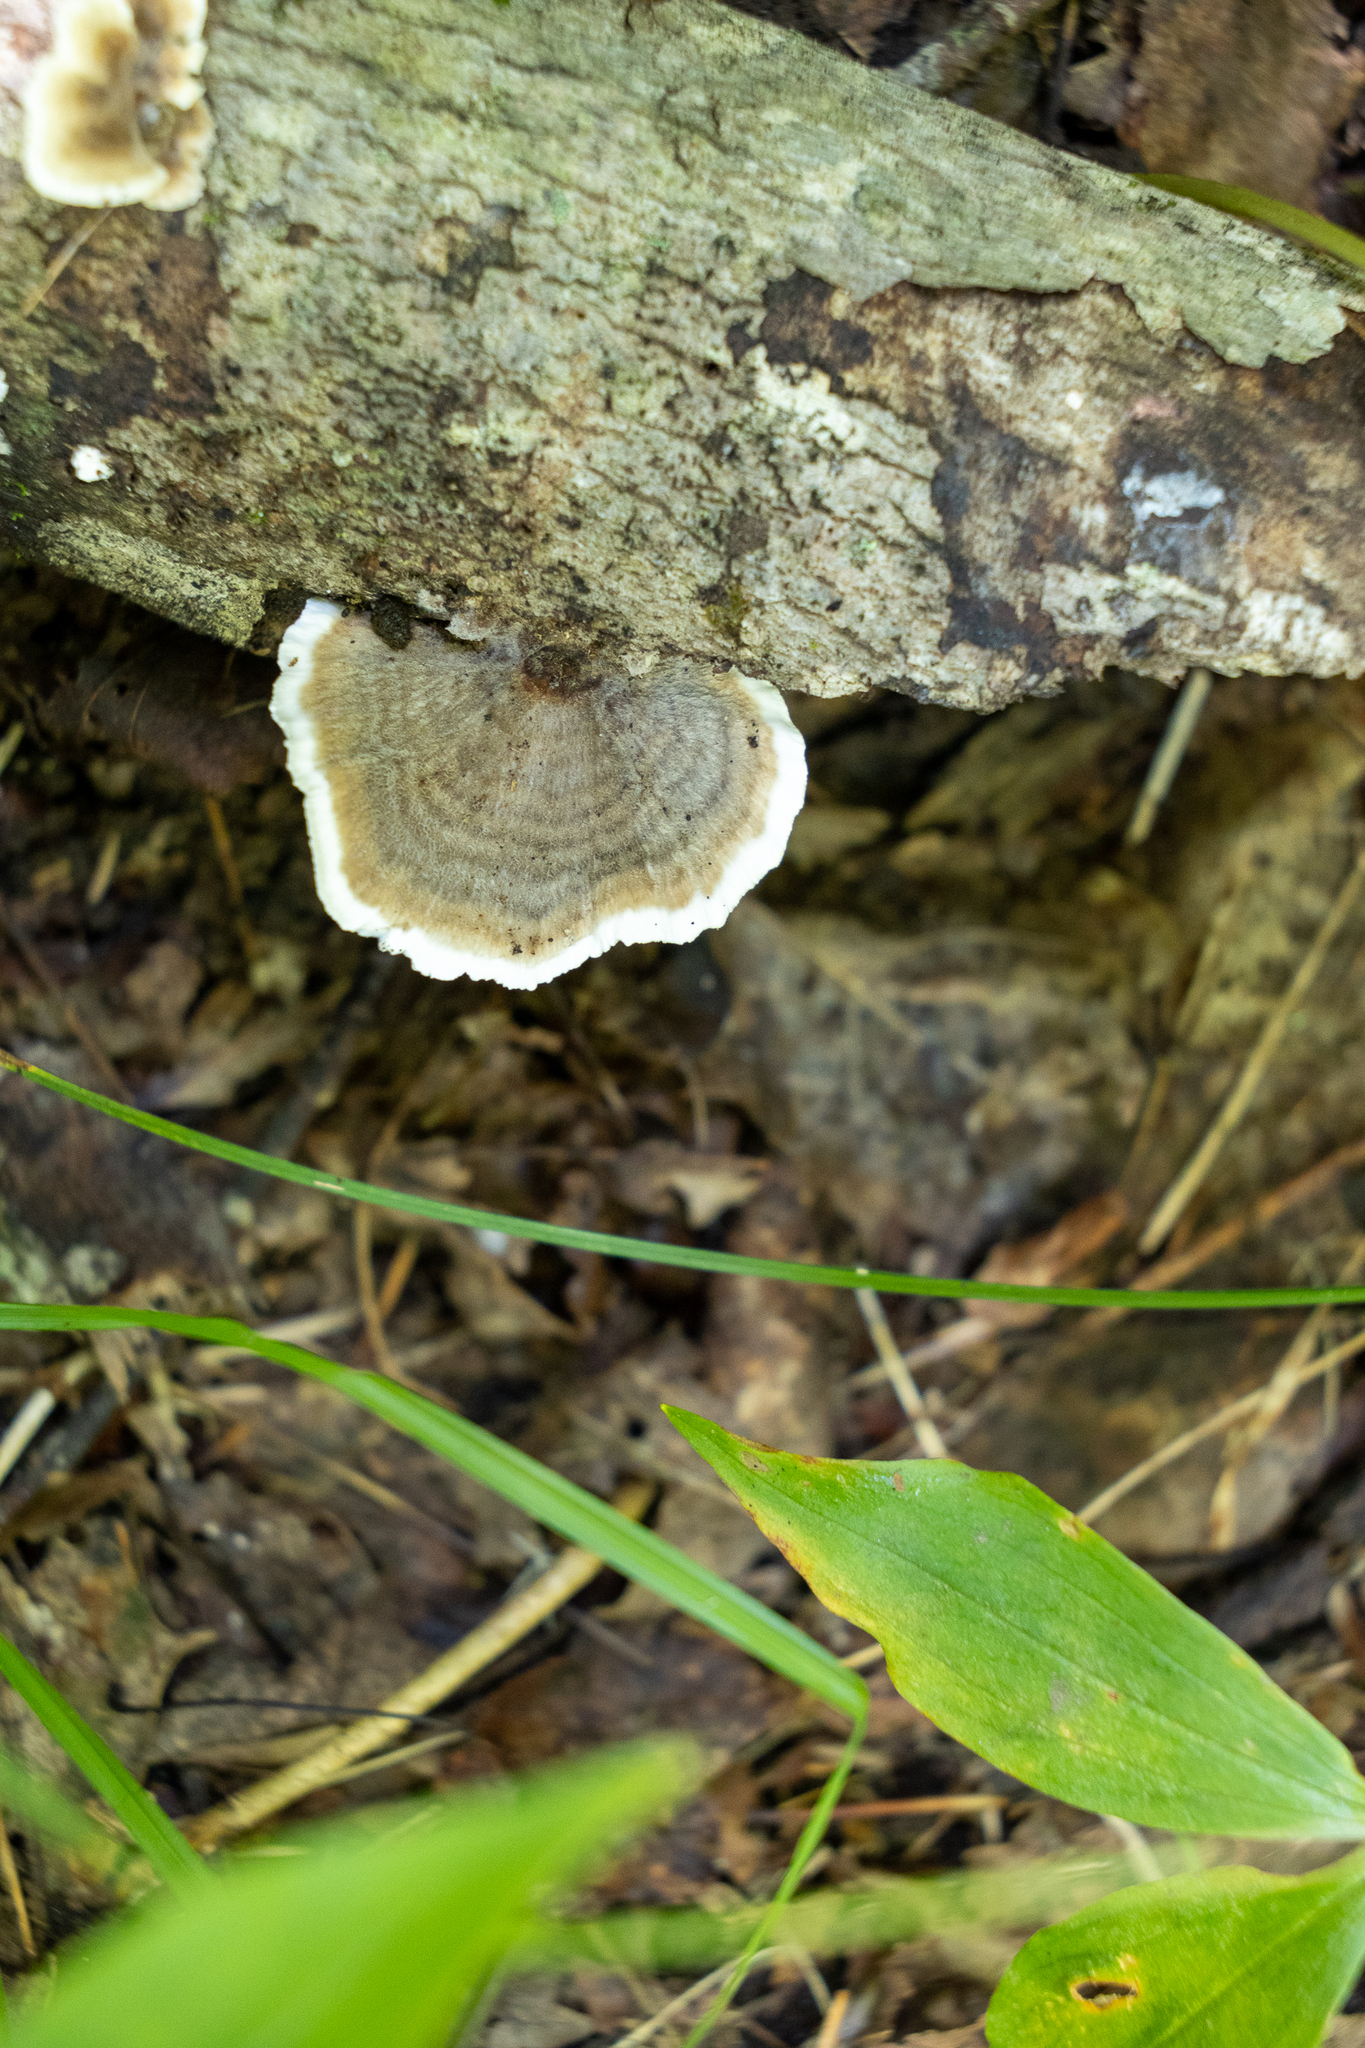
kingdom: Fungi
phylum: Basidiomycota
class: Agaricomycetes
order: Polyporales
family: Polyporaceae
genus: Trametes
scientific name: Trametes versicolor
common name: Turkeytail
